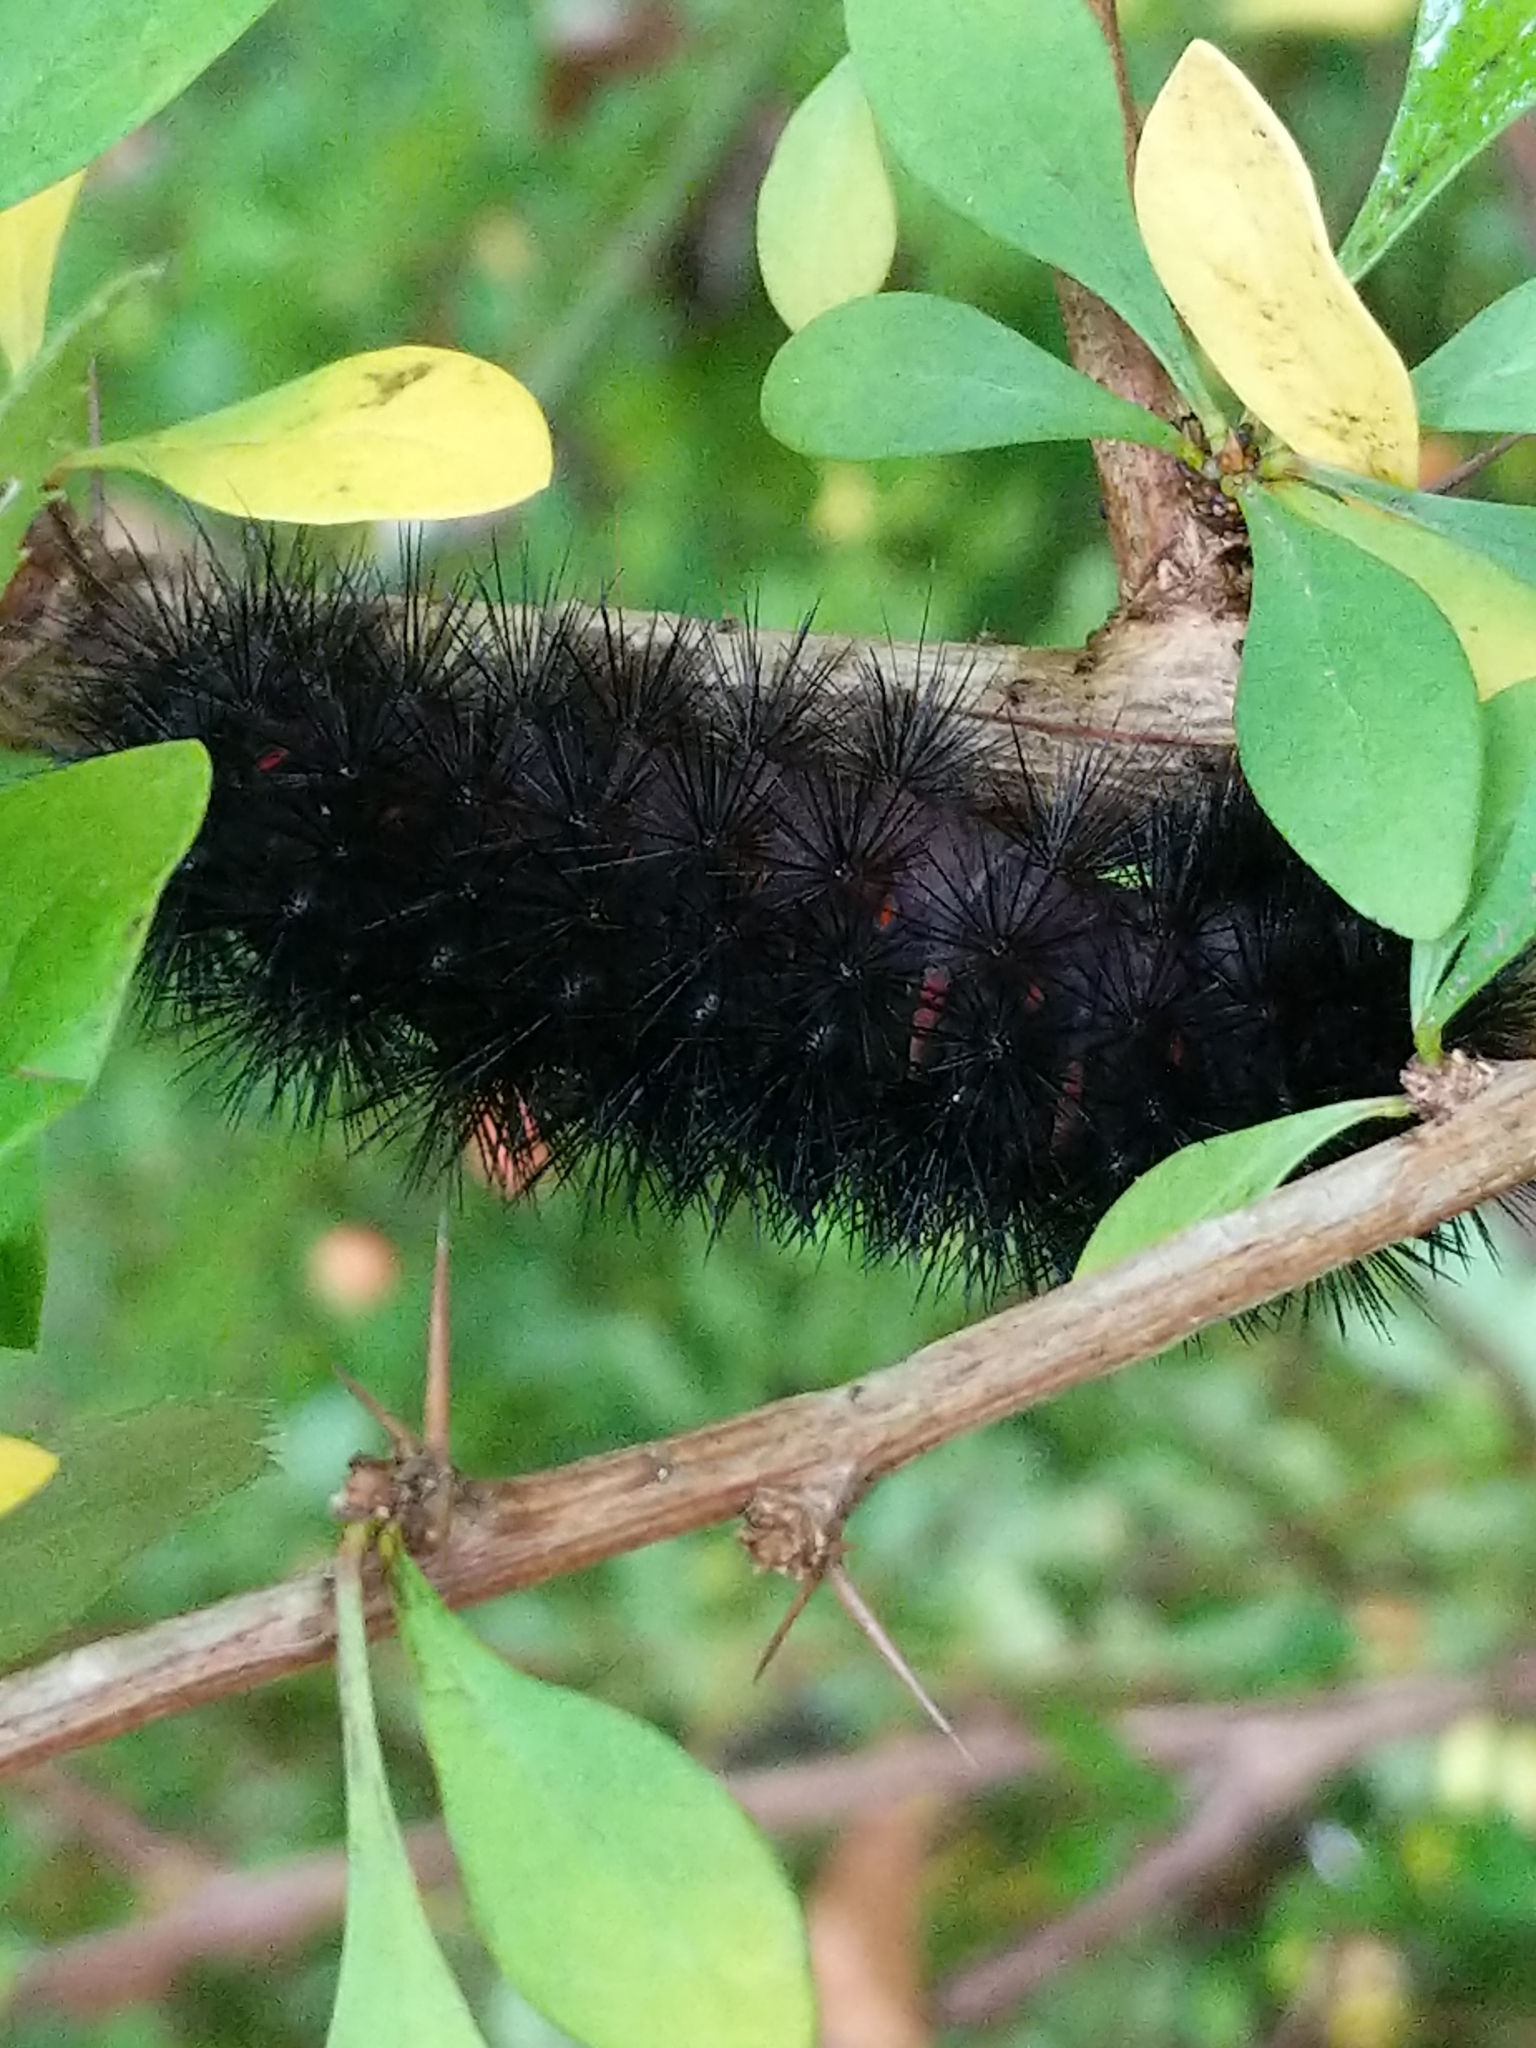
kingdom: Animalia
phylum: Arthropoda
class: Insecta
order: Lepidoptera
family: Erebidae
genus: Hypercompe
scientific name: Hypercompe scribonia
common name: Giant leopard moth
